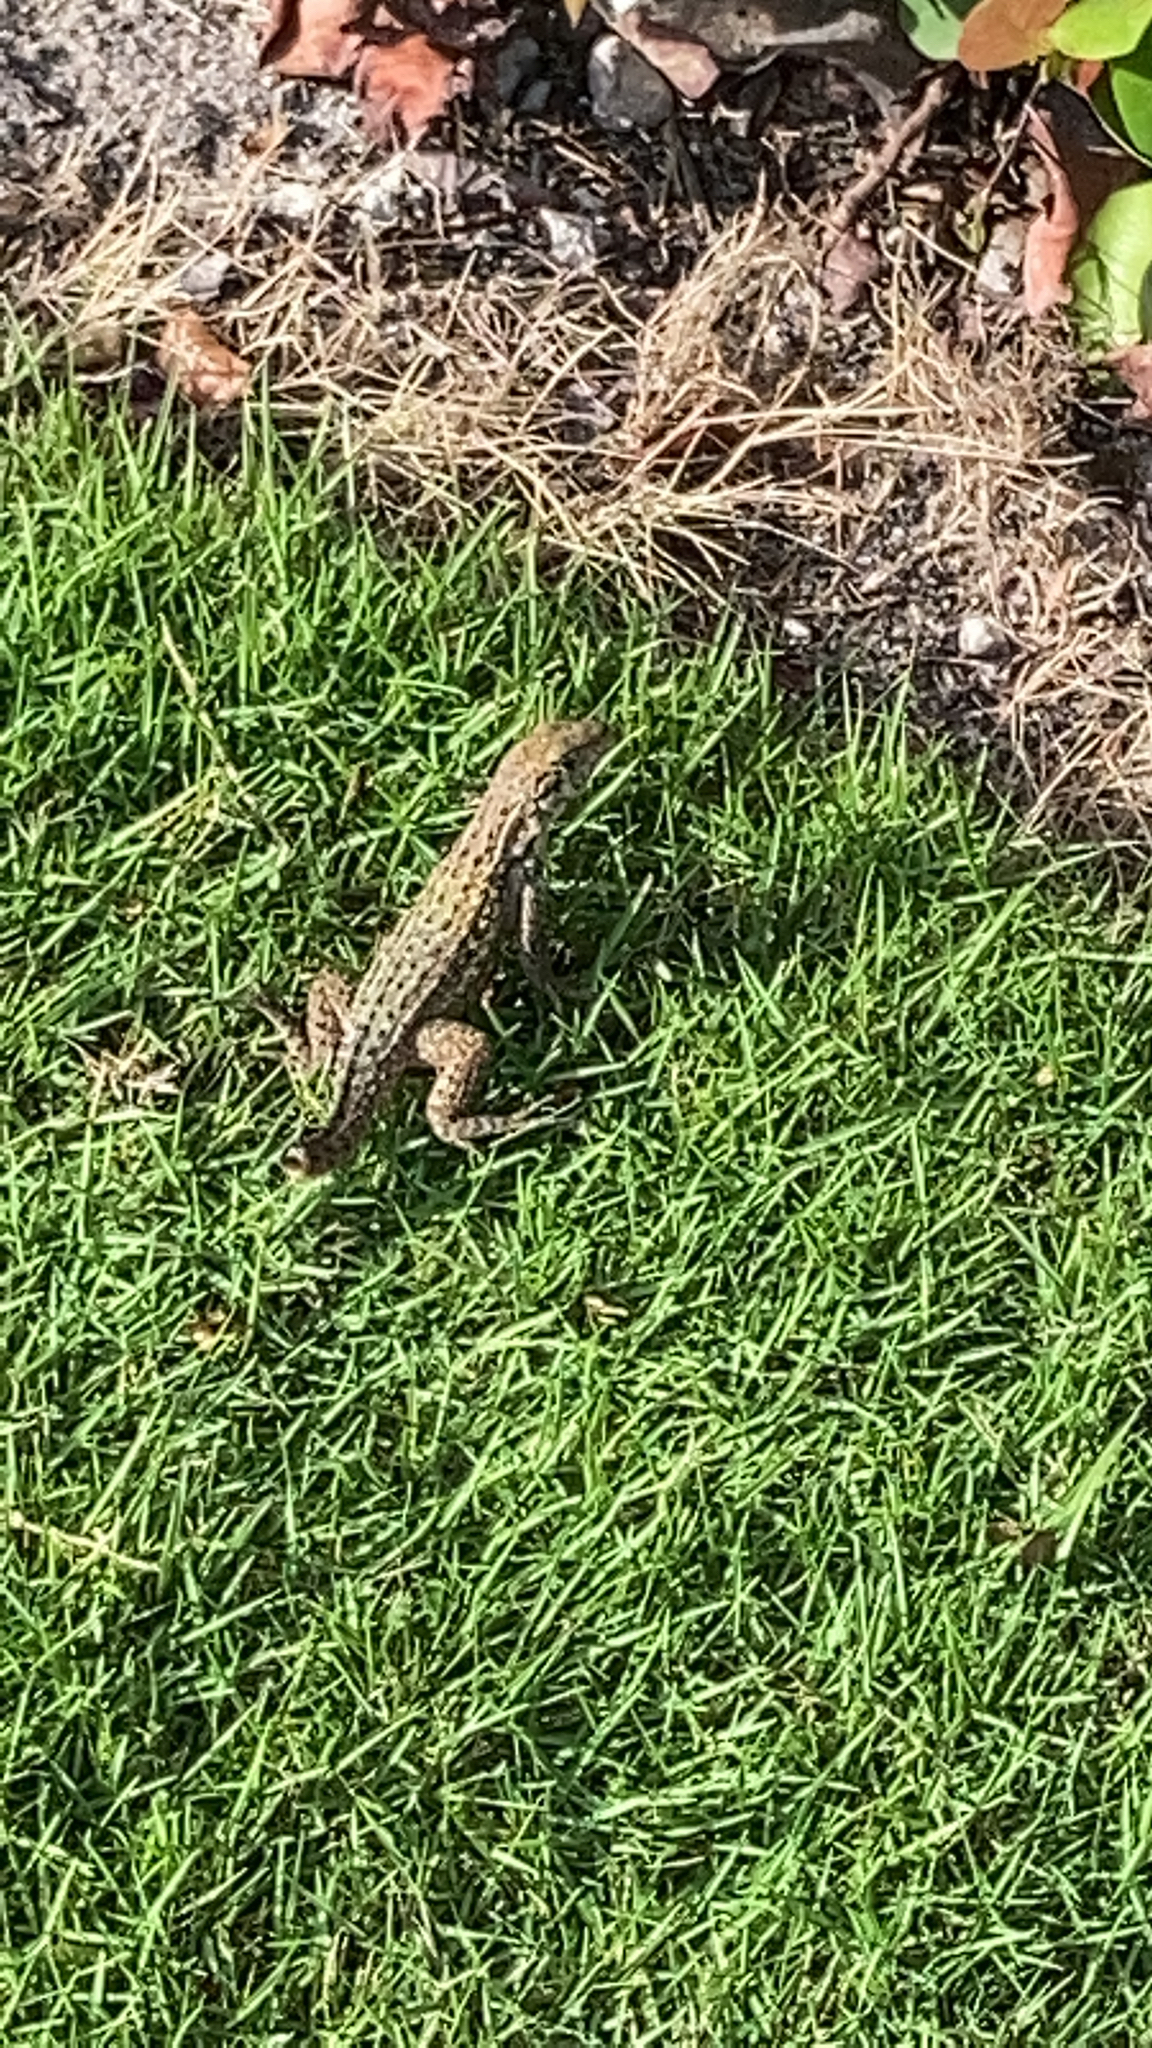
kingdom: Animalia
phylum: Chordata
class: Squamata
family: Leiocephalidae
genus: Leiocephalus
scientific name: Leiocephalus carinatus
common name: Northern curly-tailed lizard
